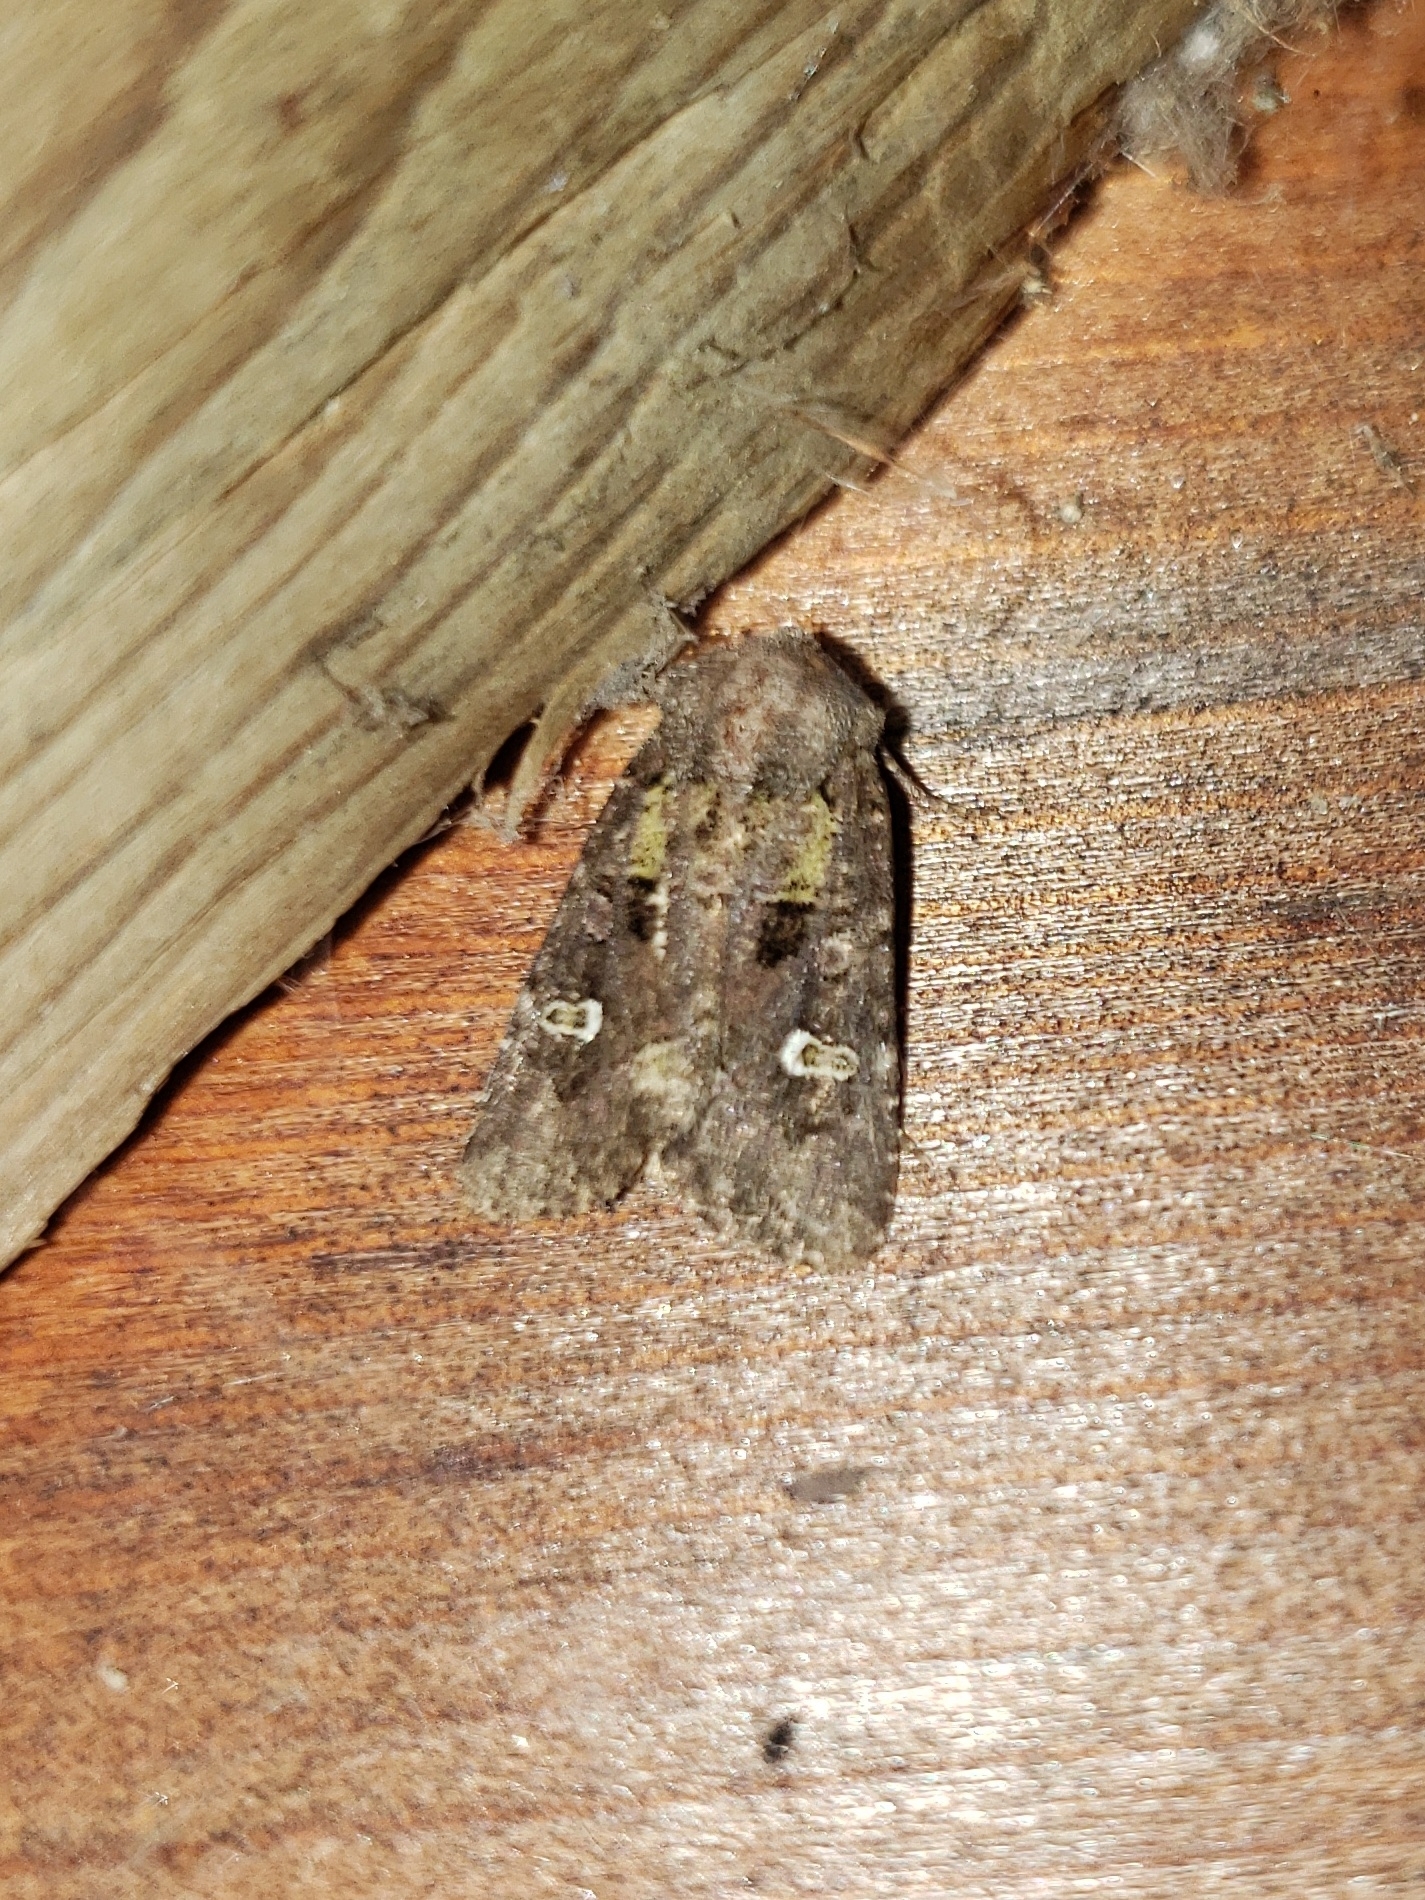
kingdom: Animalia
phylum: Arthropoda
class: Insecta
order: Lepidoptera
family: Noctuidae
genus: Lacinipolia
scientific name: Lacinipolia renigera
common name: Kidney-spotted minor
